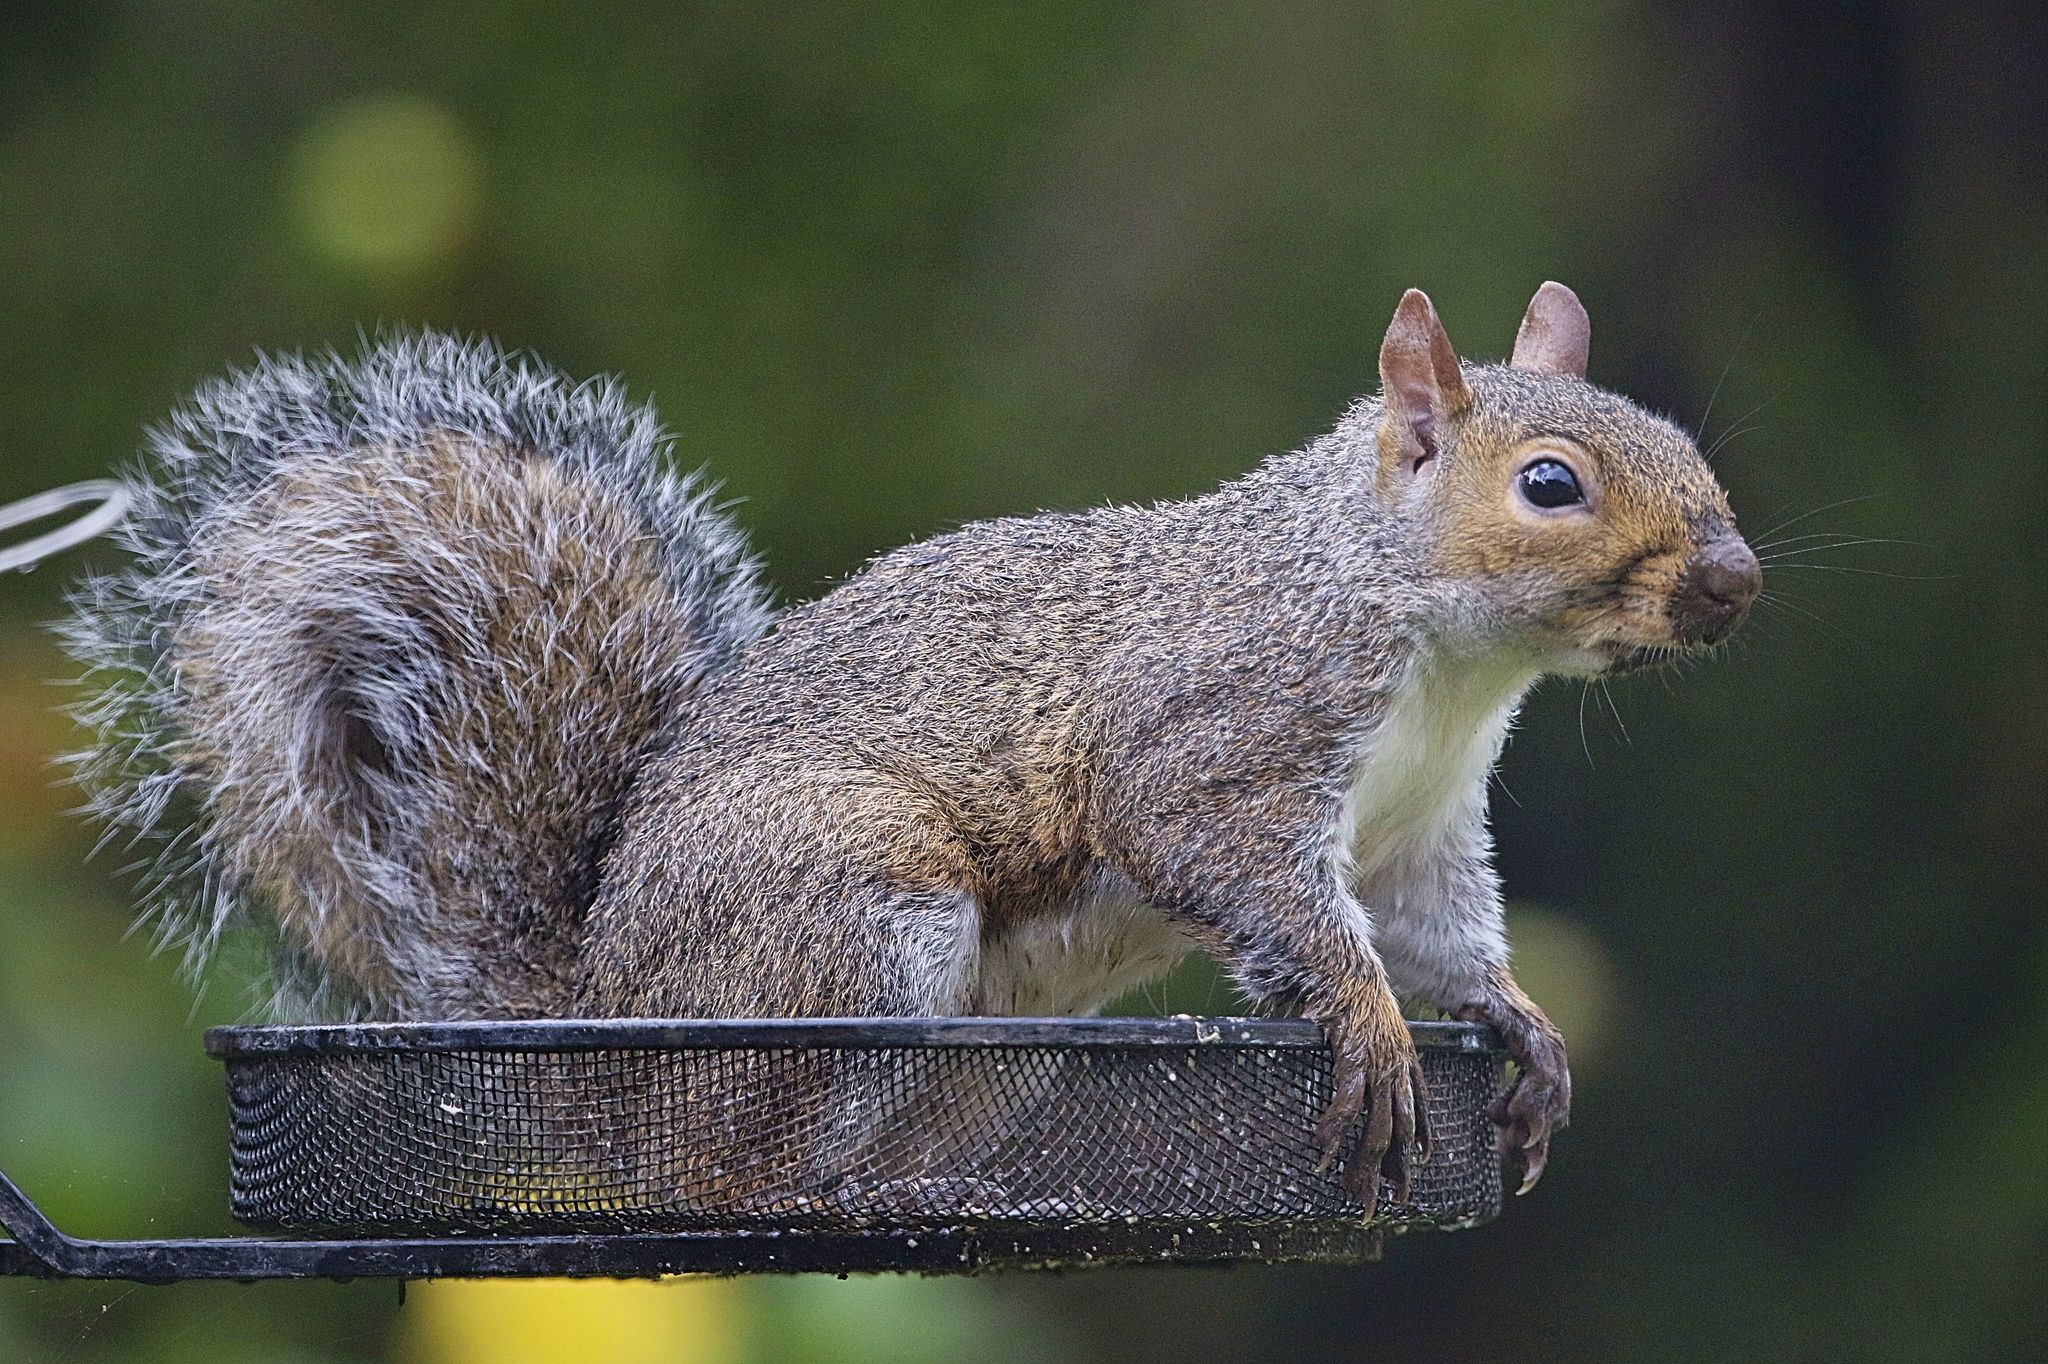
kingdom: Animalia
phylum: Chordata
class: Mammalia
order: Rodentia
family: Sciuridae
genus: Sciurus
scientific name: Sciurus carolinensis
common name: Eastern gray squirrel
